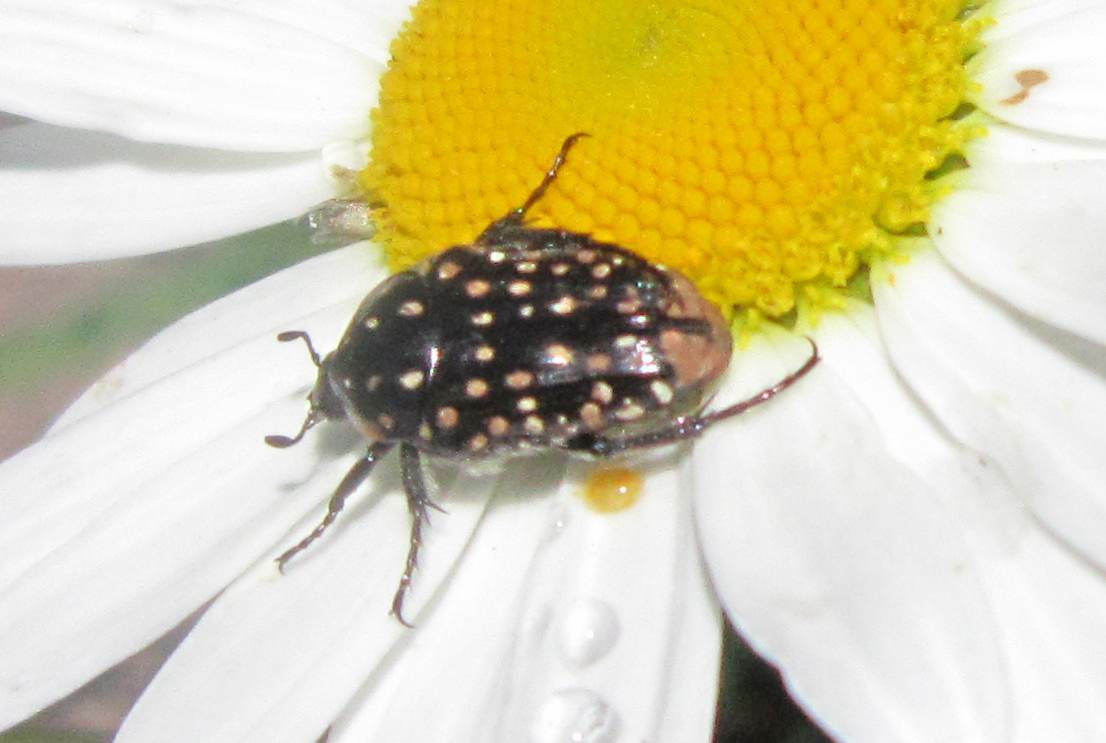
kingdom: Animalia
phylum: Arthropoda
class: Insecta
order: Coleoptera
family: Scarabaeidae
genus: Oxythyrea
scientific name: Oxythyrea
